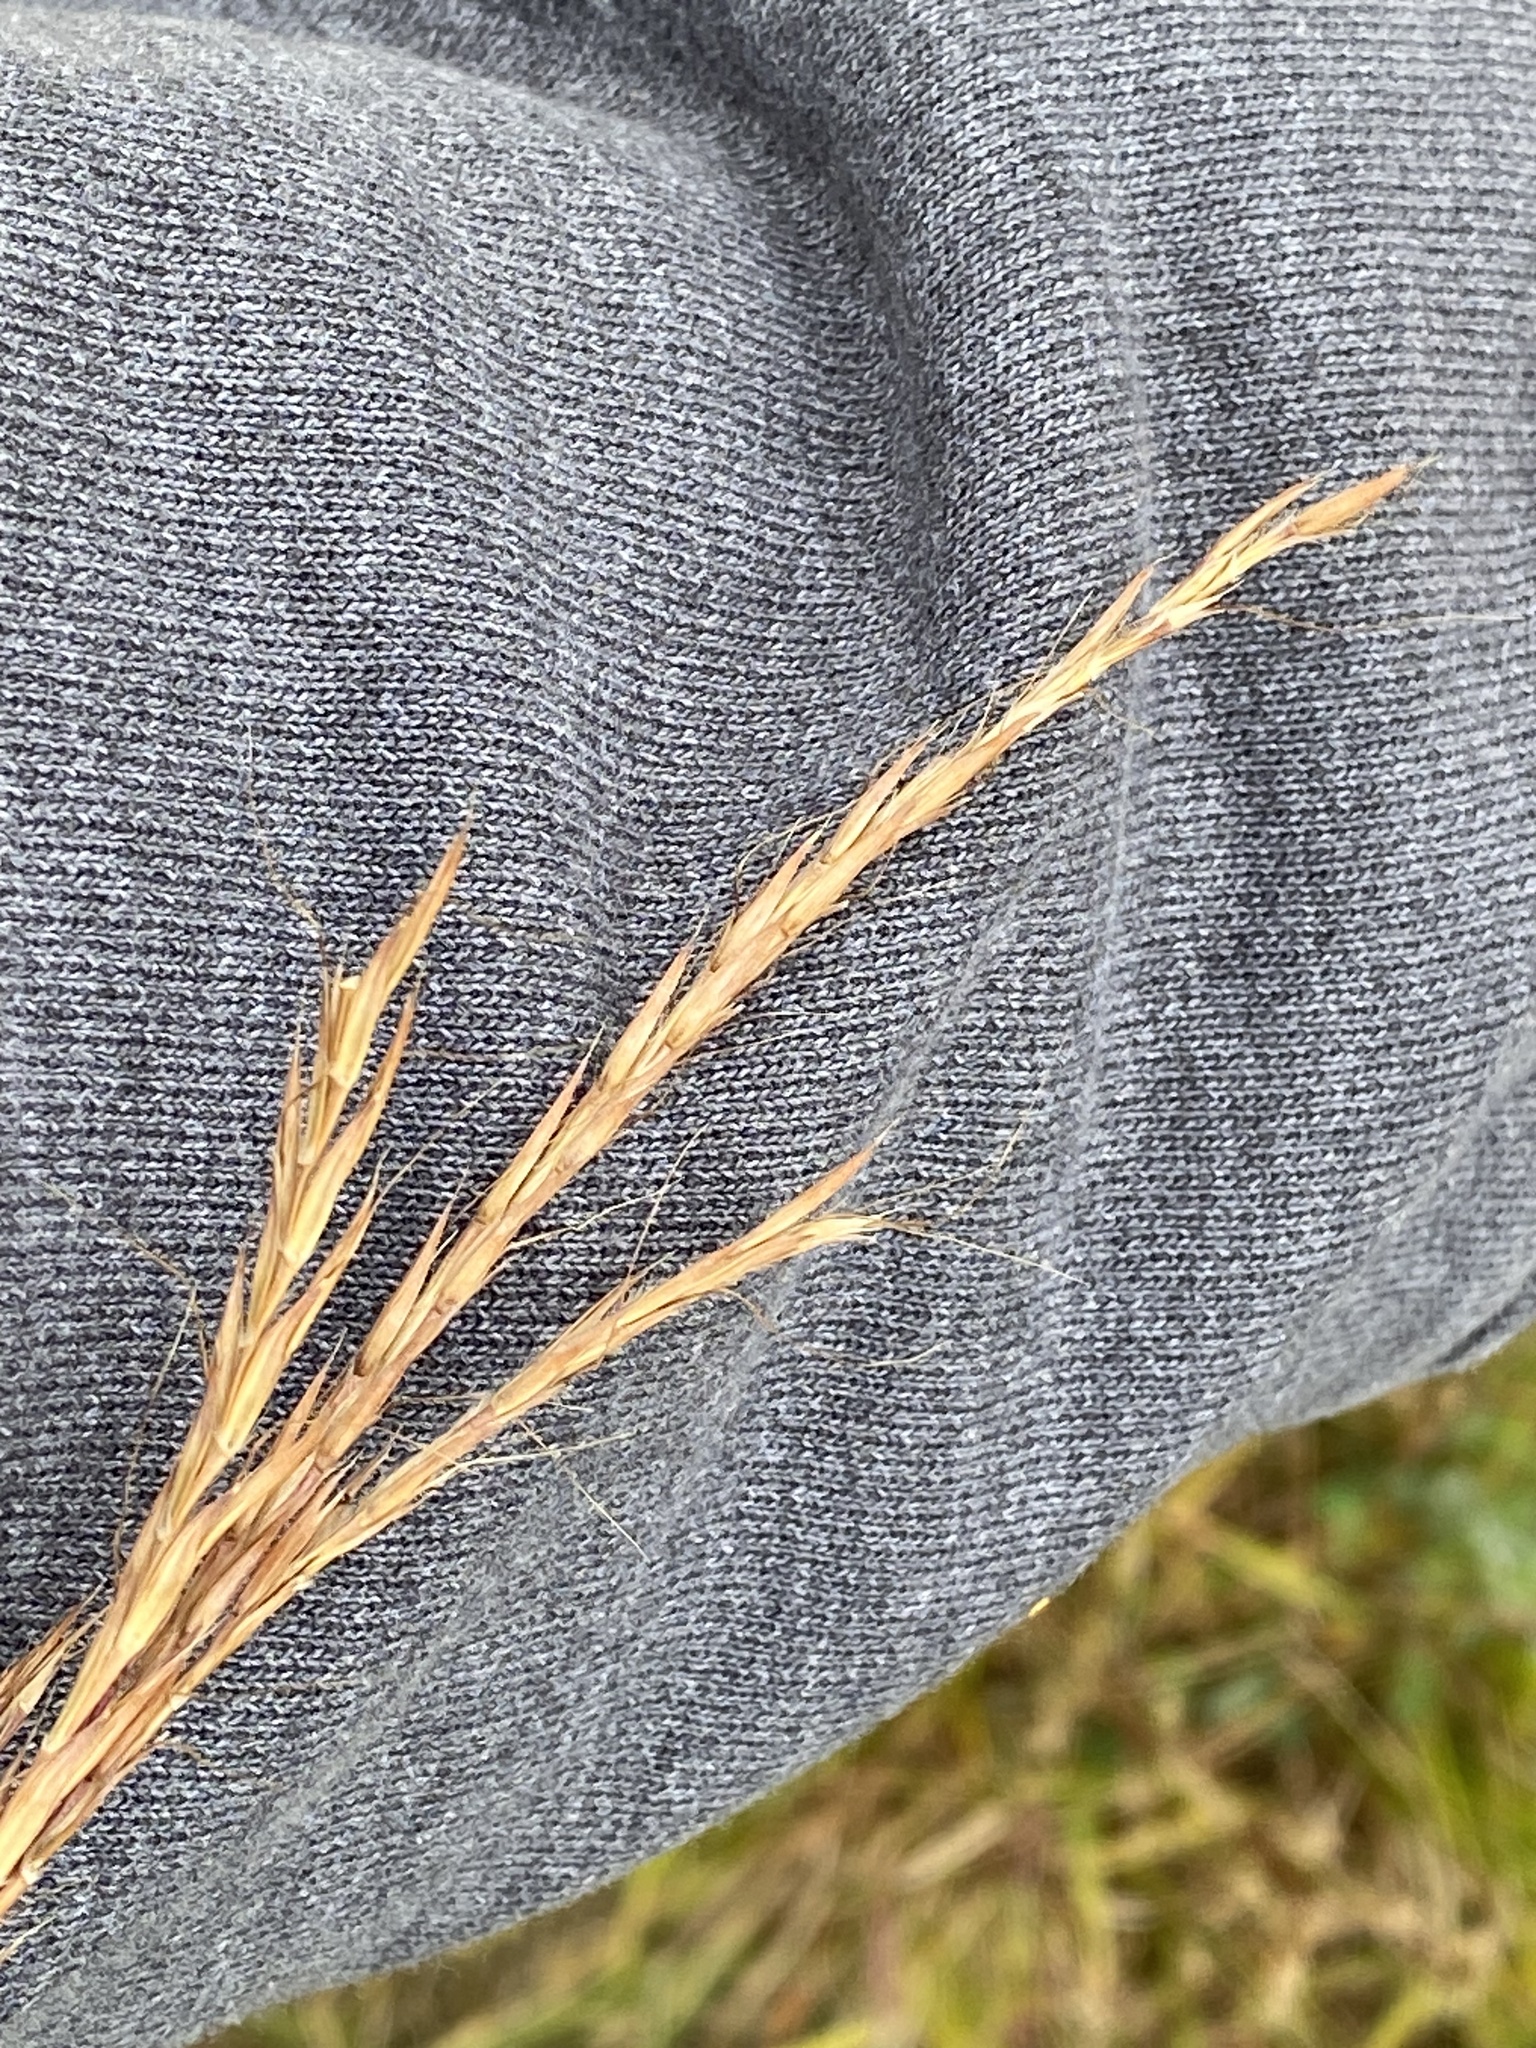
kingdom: Plantae
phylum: Tracheophyta
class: Liliopsida
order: Poales
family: Poaceae
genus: Andropogon
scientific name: Andropogon gerardi
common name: Big bluestem
